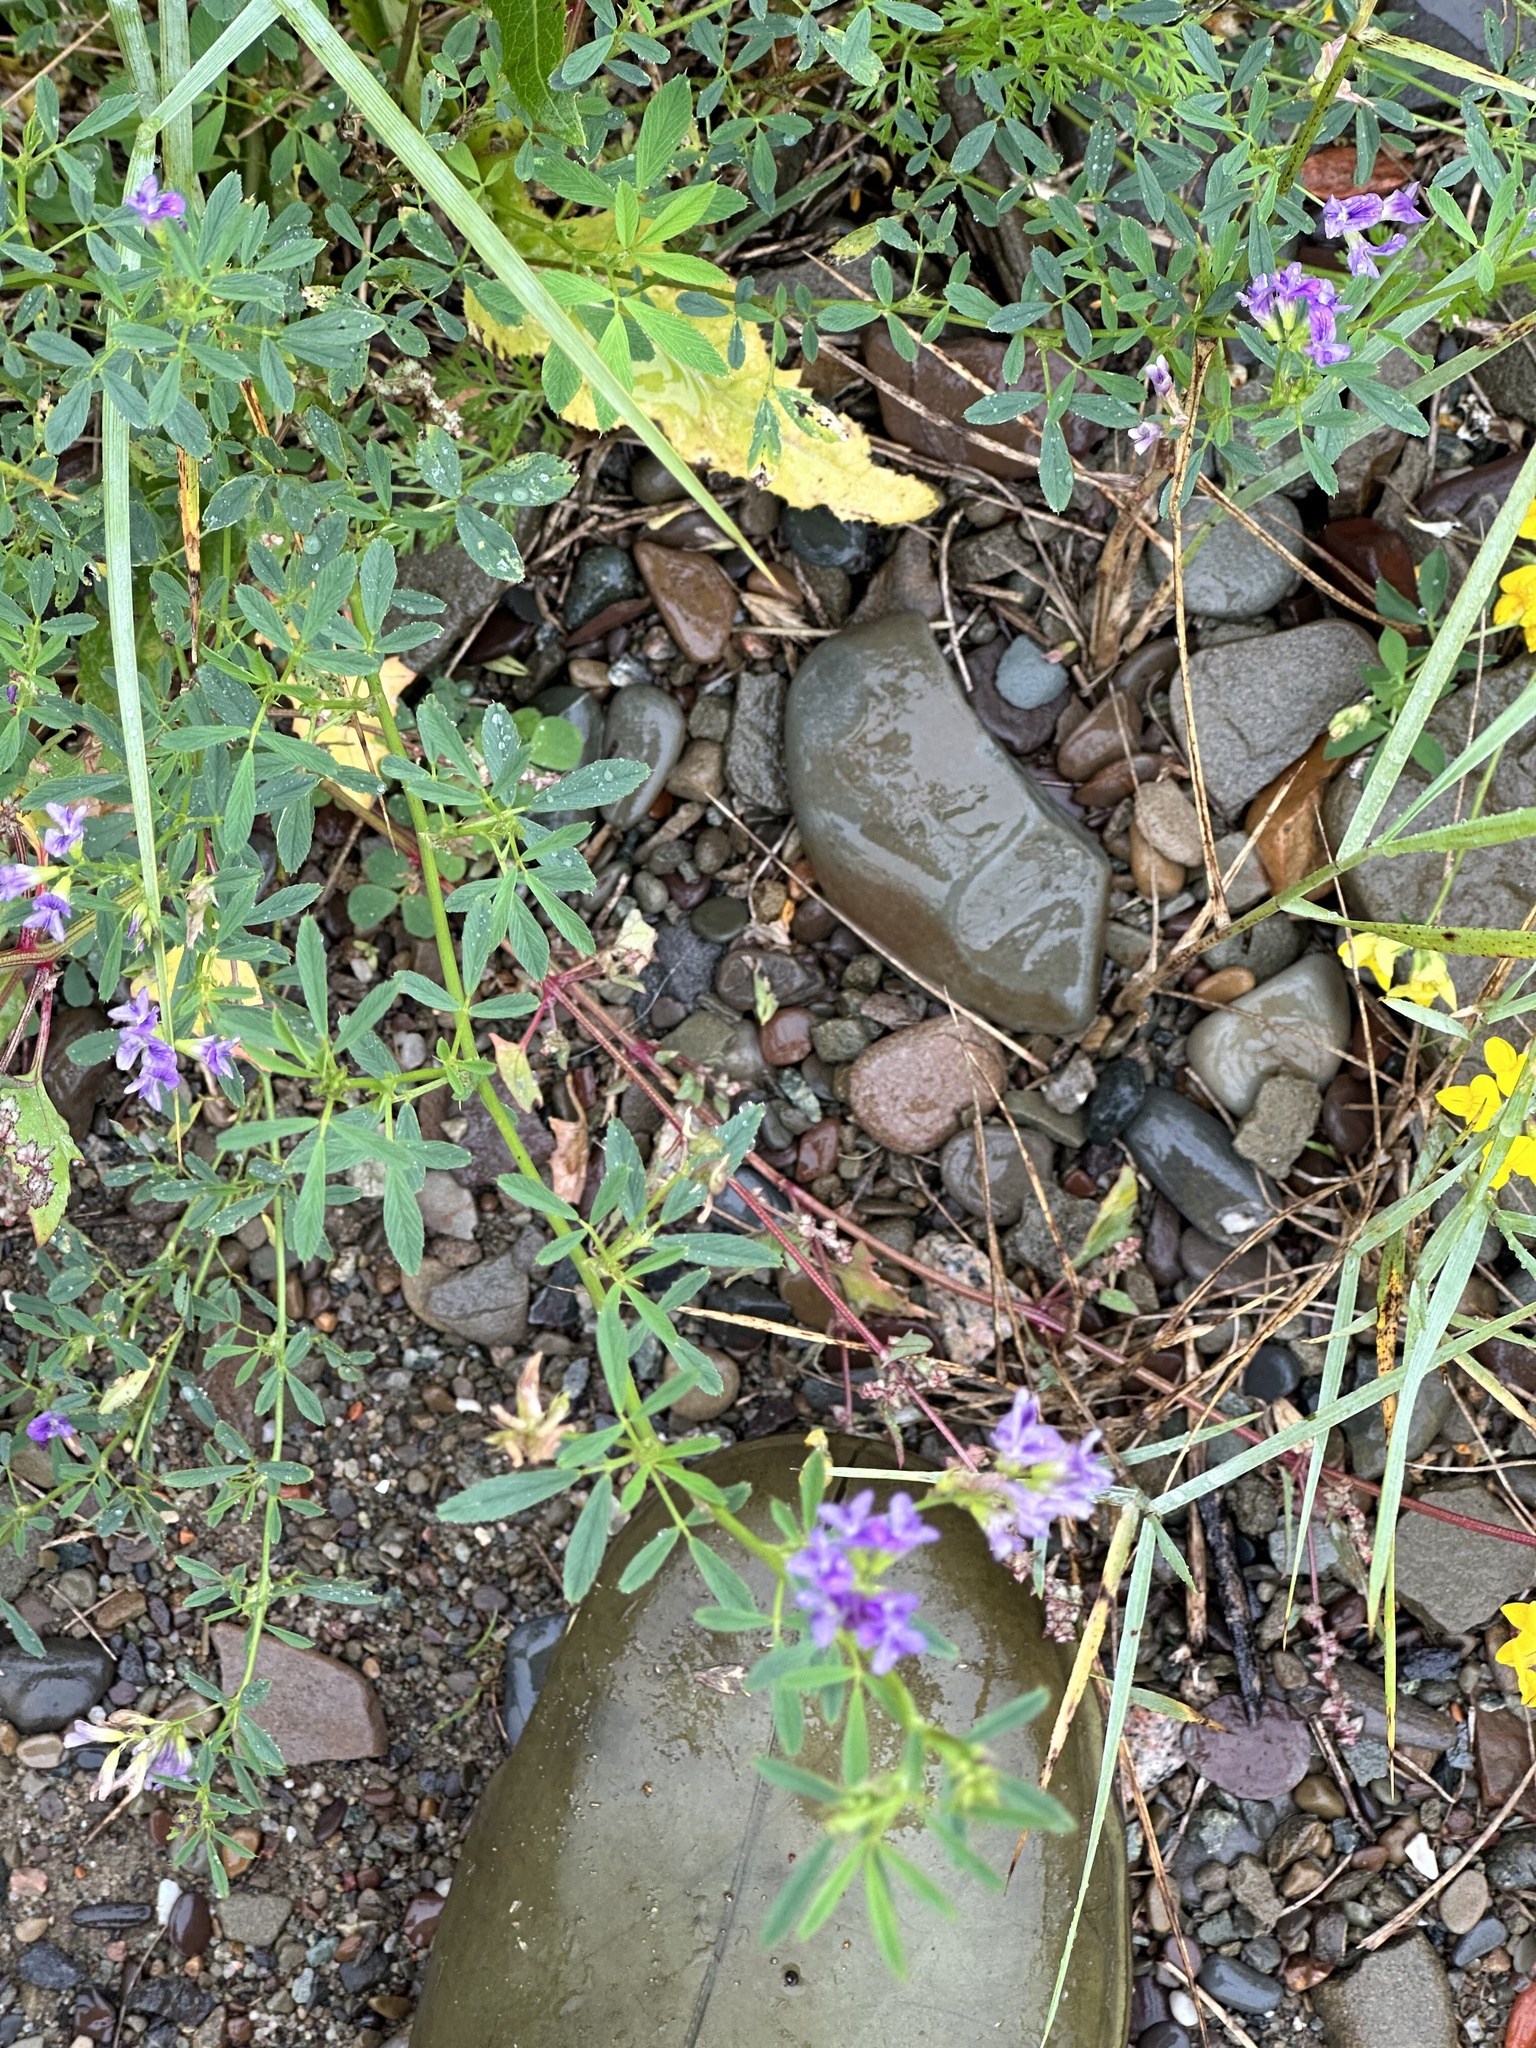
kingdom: Plantae
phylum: Tracheophyta
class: Magnoliopsida
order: Fabales
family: Fabaceae
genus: Medicago
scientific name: Medicago sativa
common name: Alfalfa
